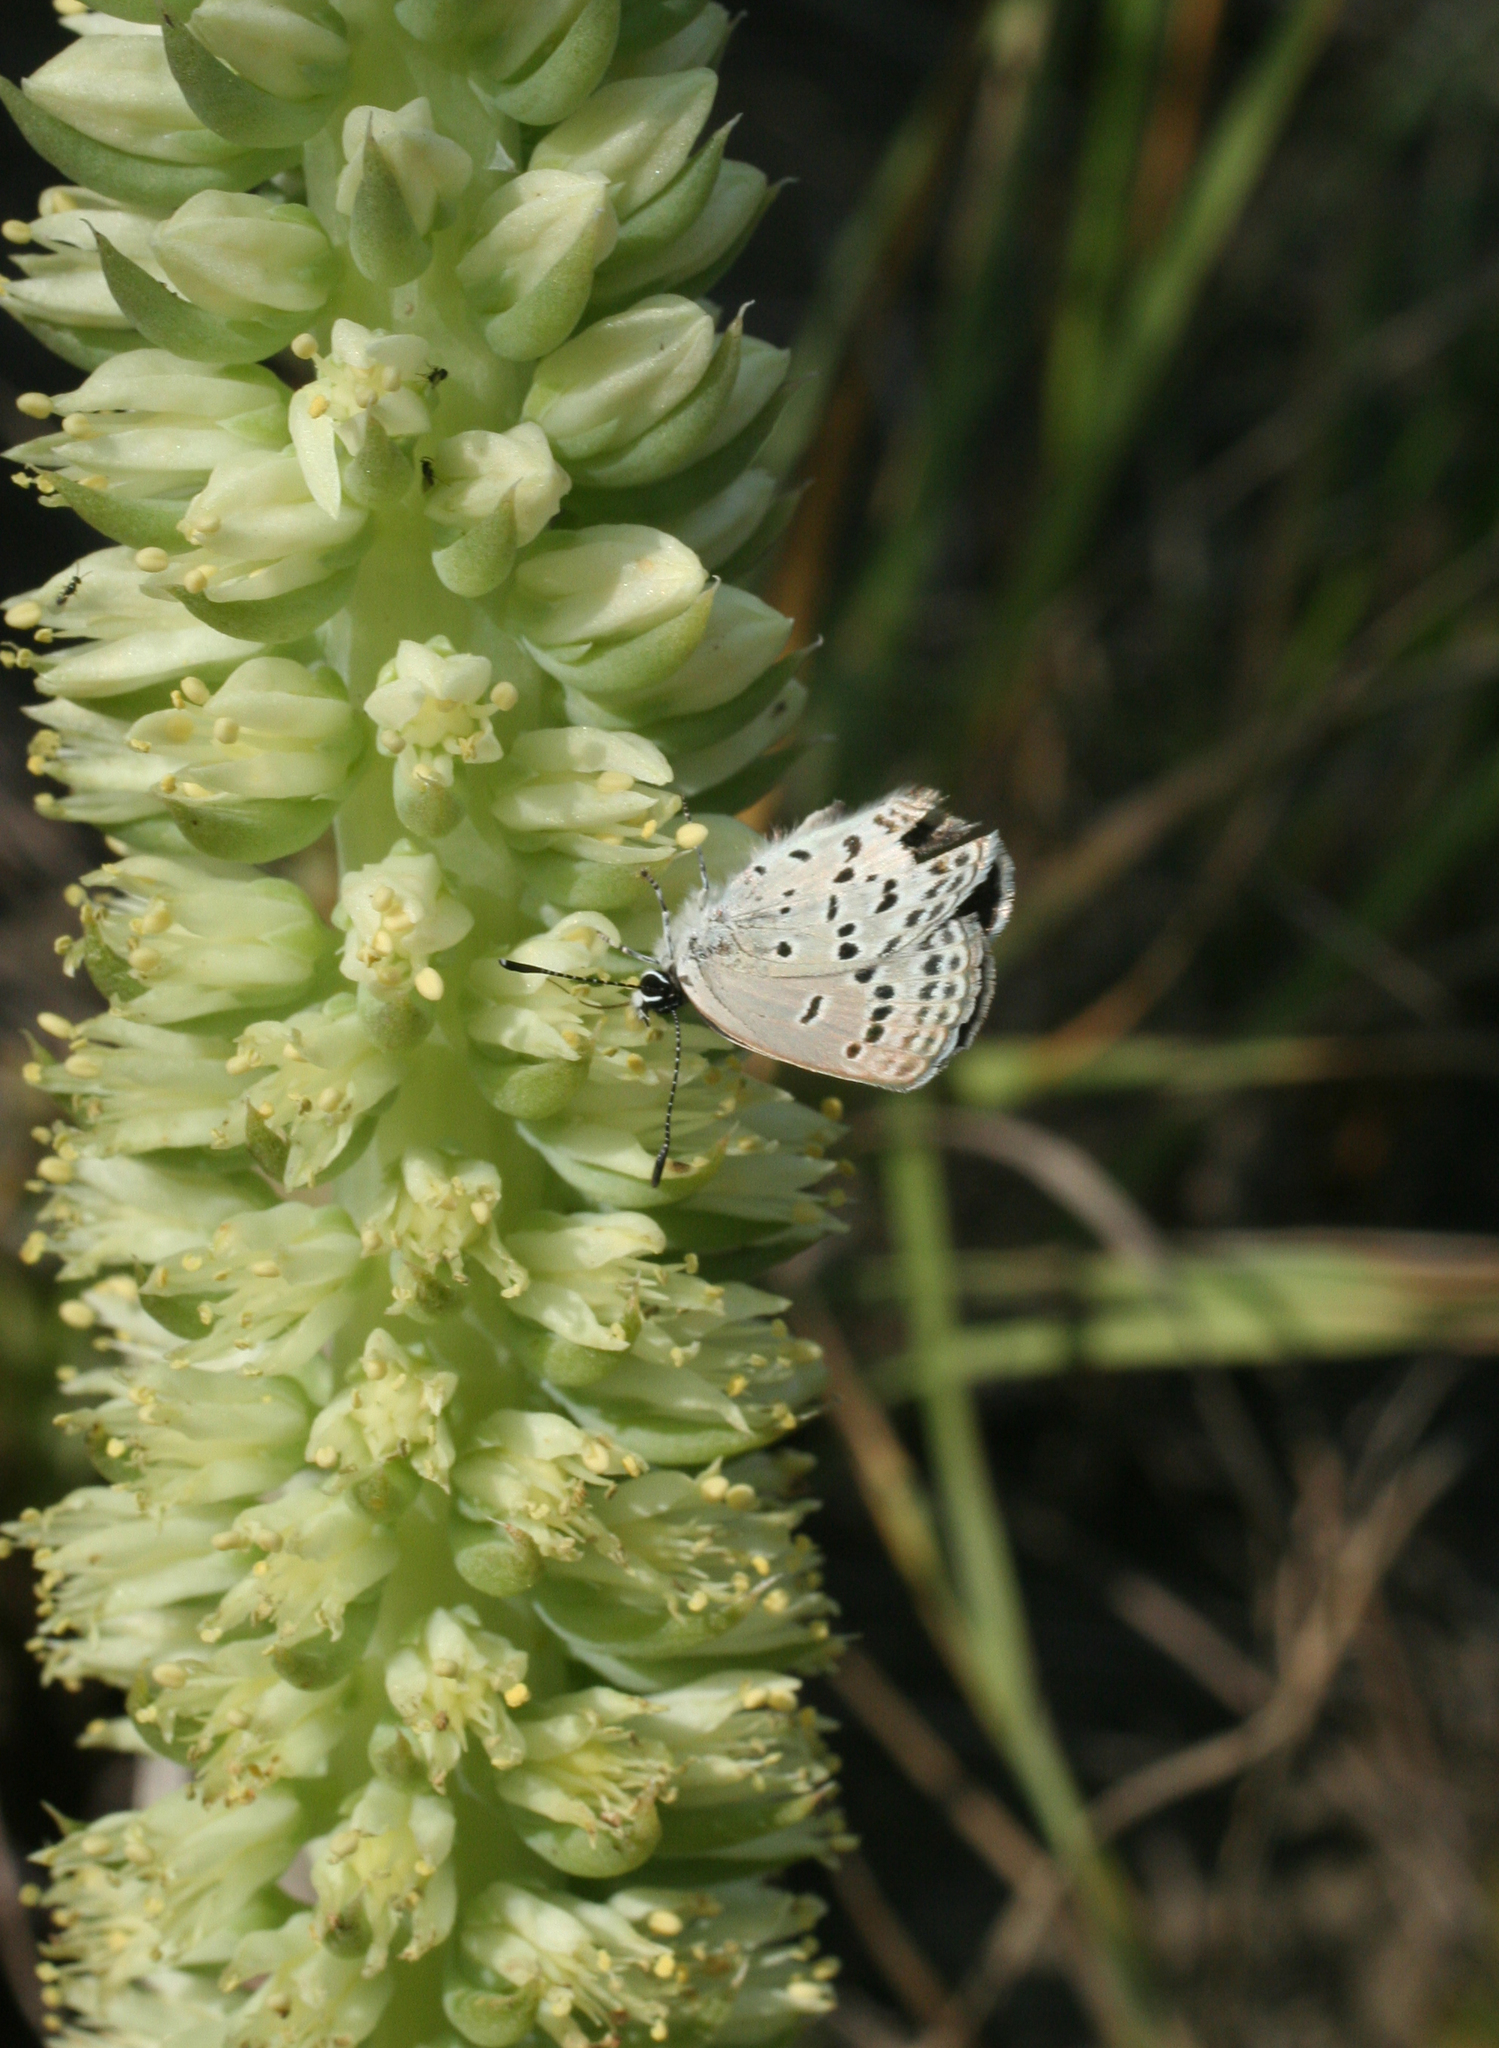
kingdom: Animalia
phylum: Arthropoda
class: Insecta
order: Lepidoptera
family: Lycaenidae
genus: Tongeia
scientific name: Tongeia fischeri
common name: Fischer's blue
